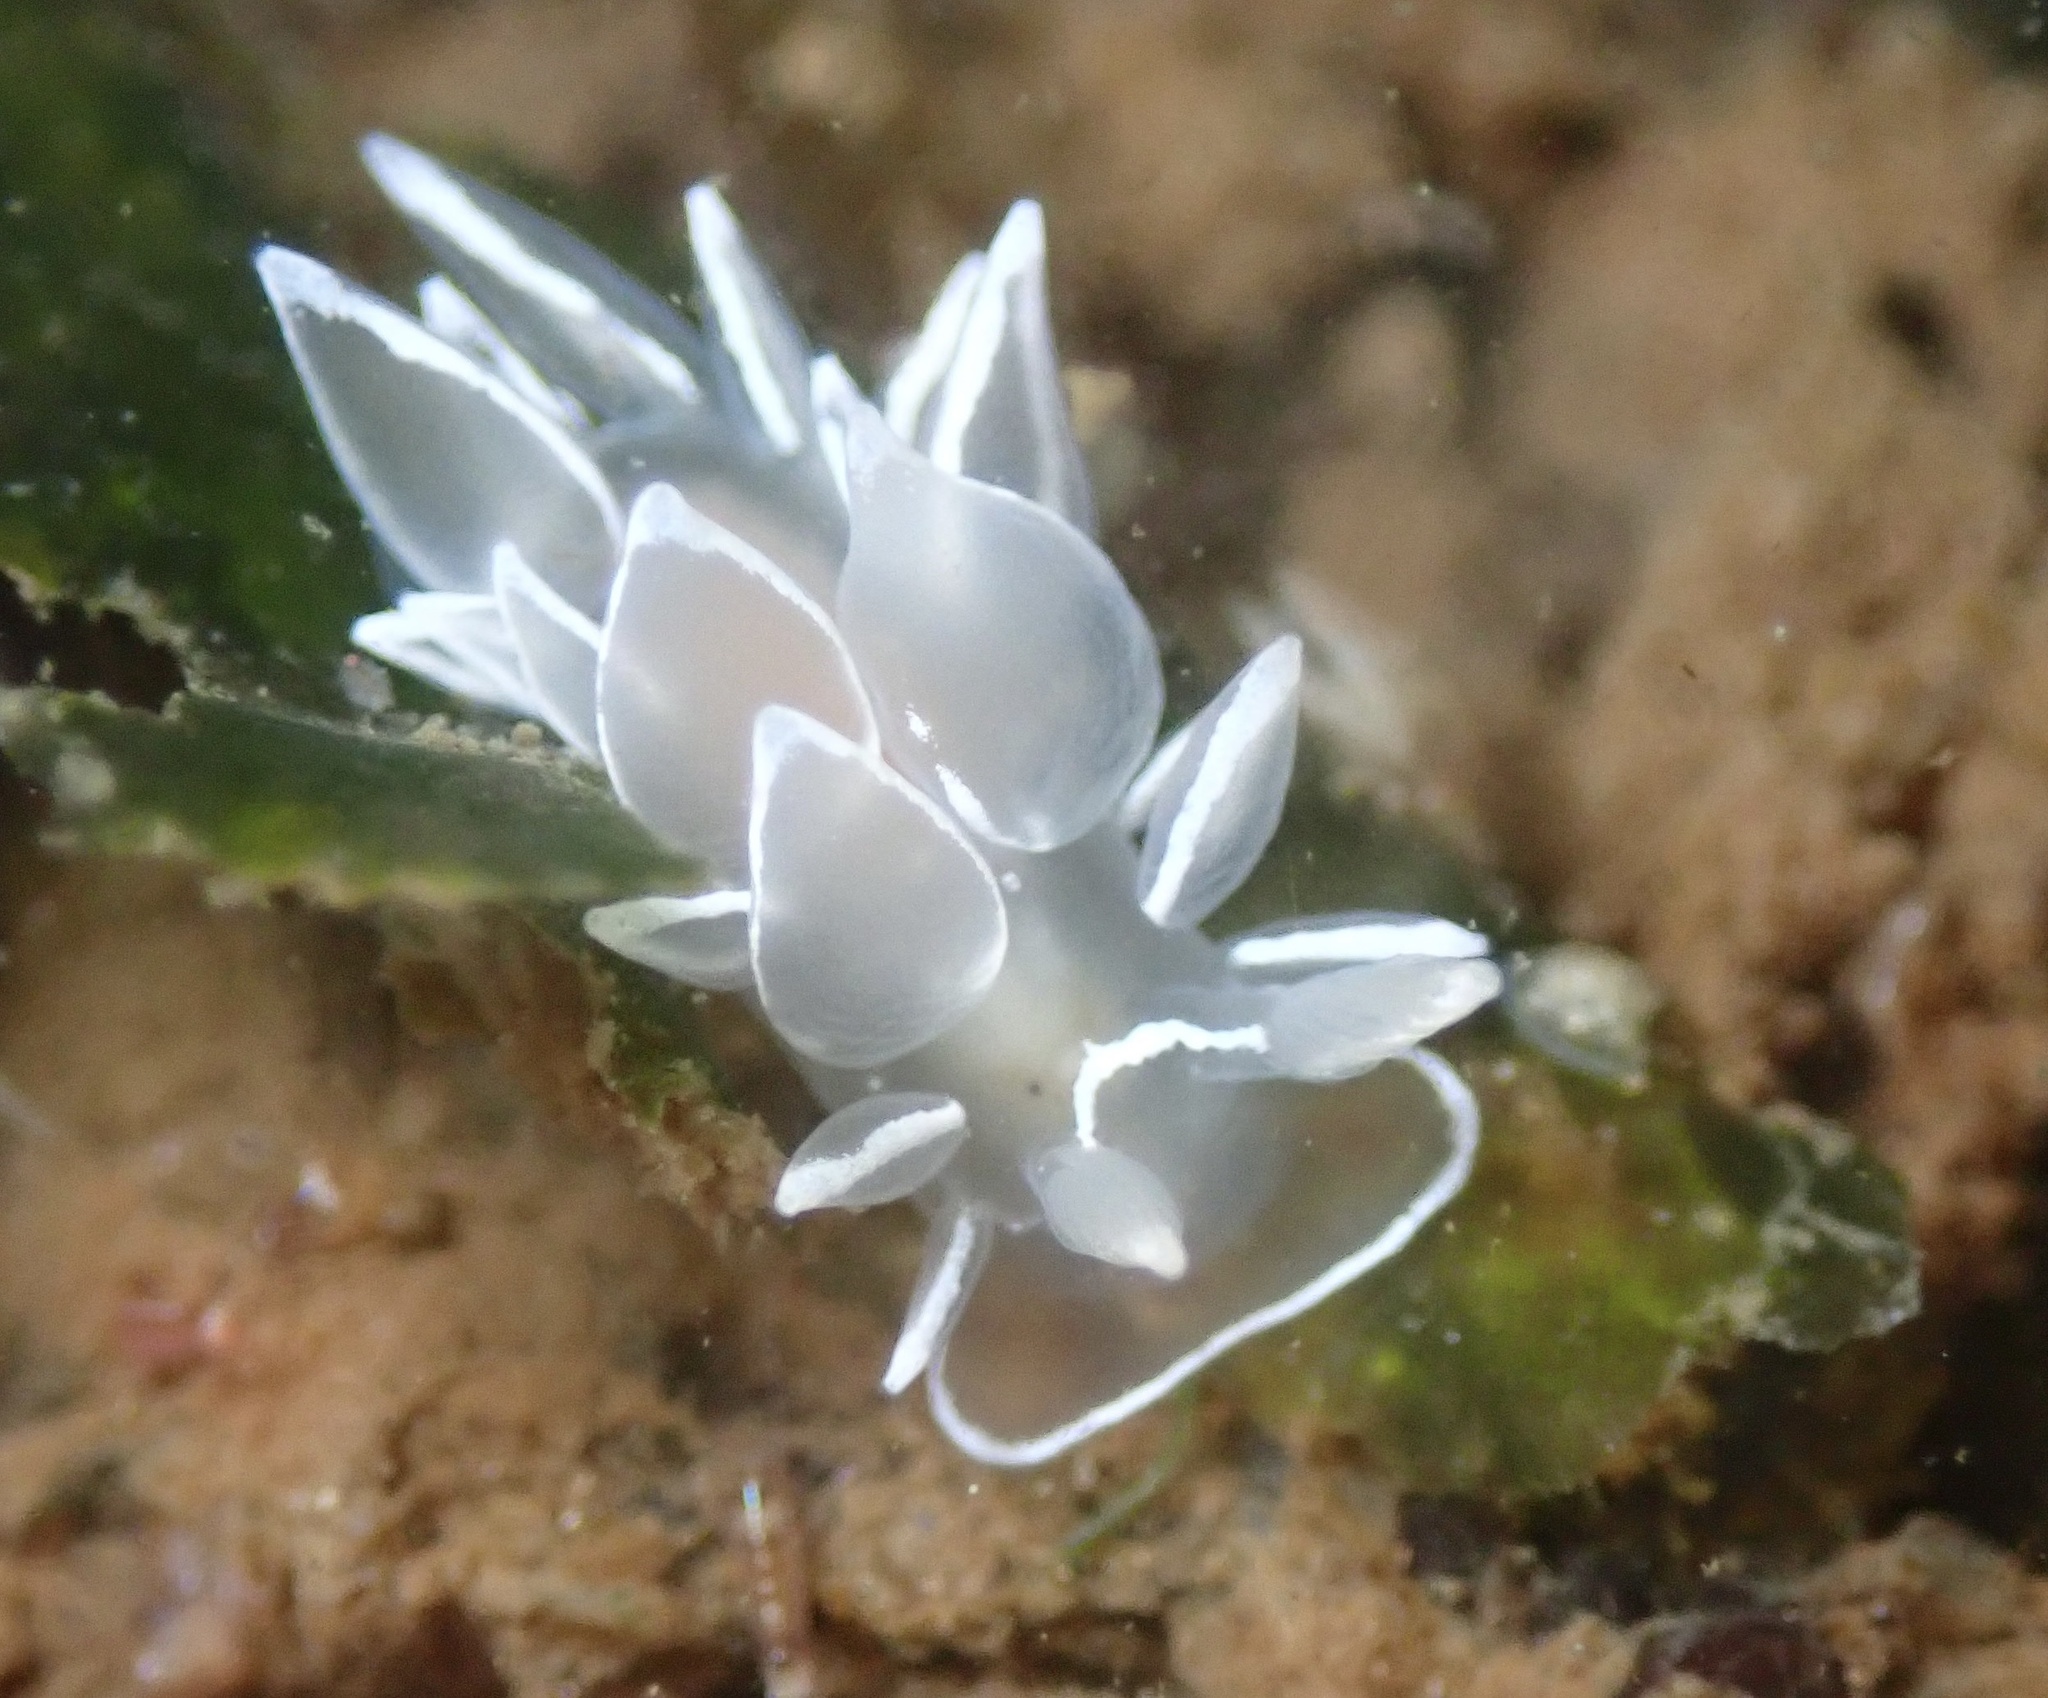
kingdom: Animalia
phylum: Mollusca
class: Gastropoda
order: Nudibranchia
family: Dironidae
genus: Dirona
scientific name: Dirona albolineata
